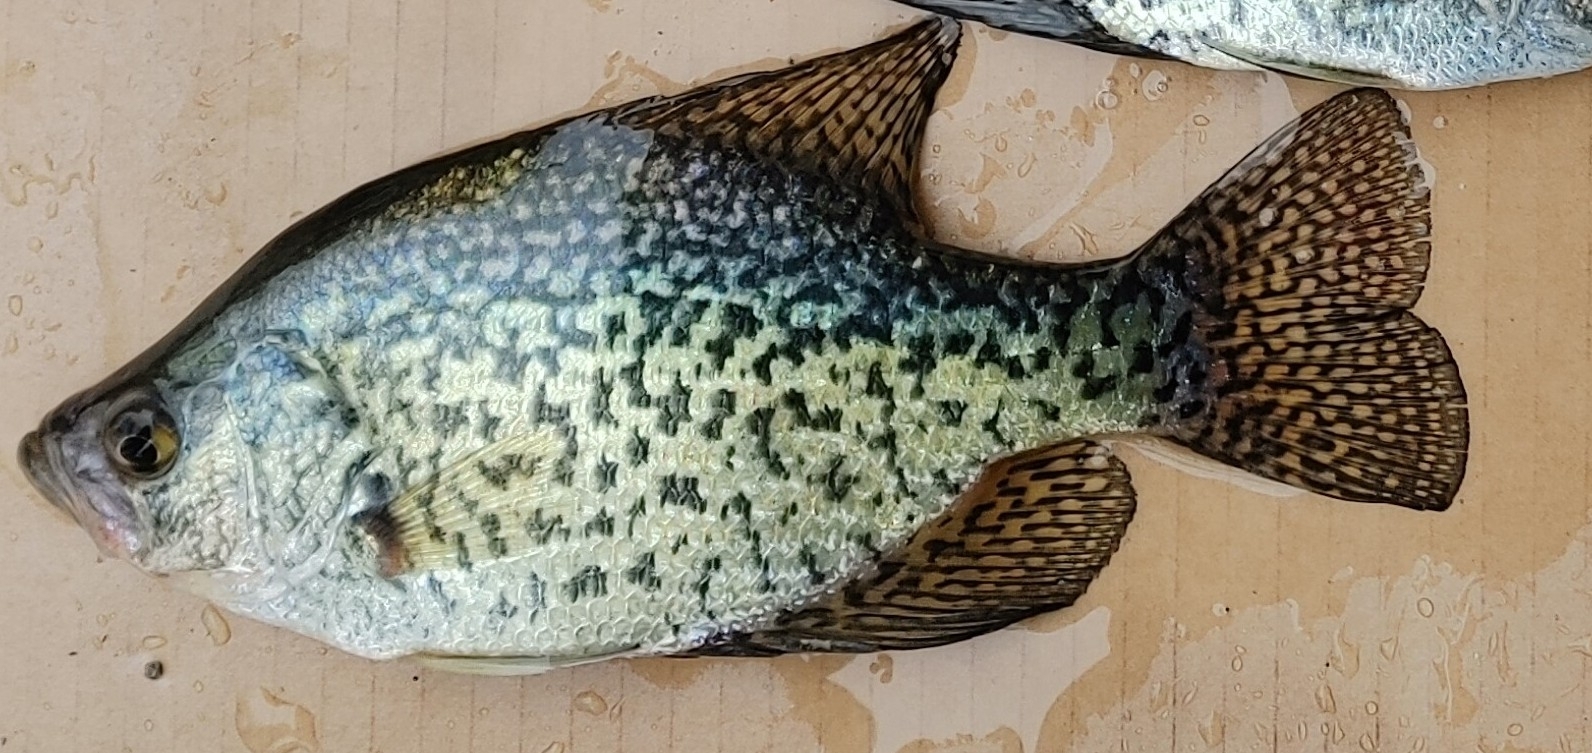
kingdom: Animalia
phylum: Chordata
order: Perciformes
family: Centrarchidae
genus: Pomoxis
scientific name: Pomoxis nigromaculatus
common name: Black crappie
